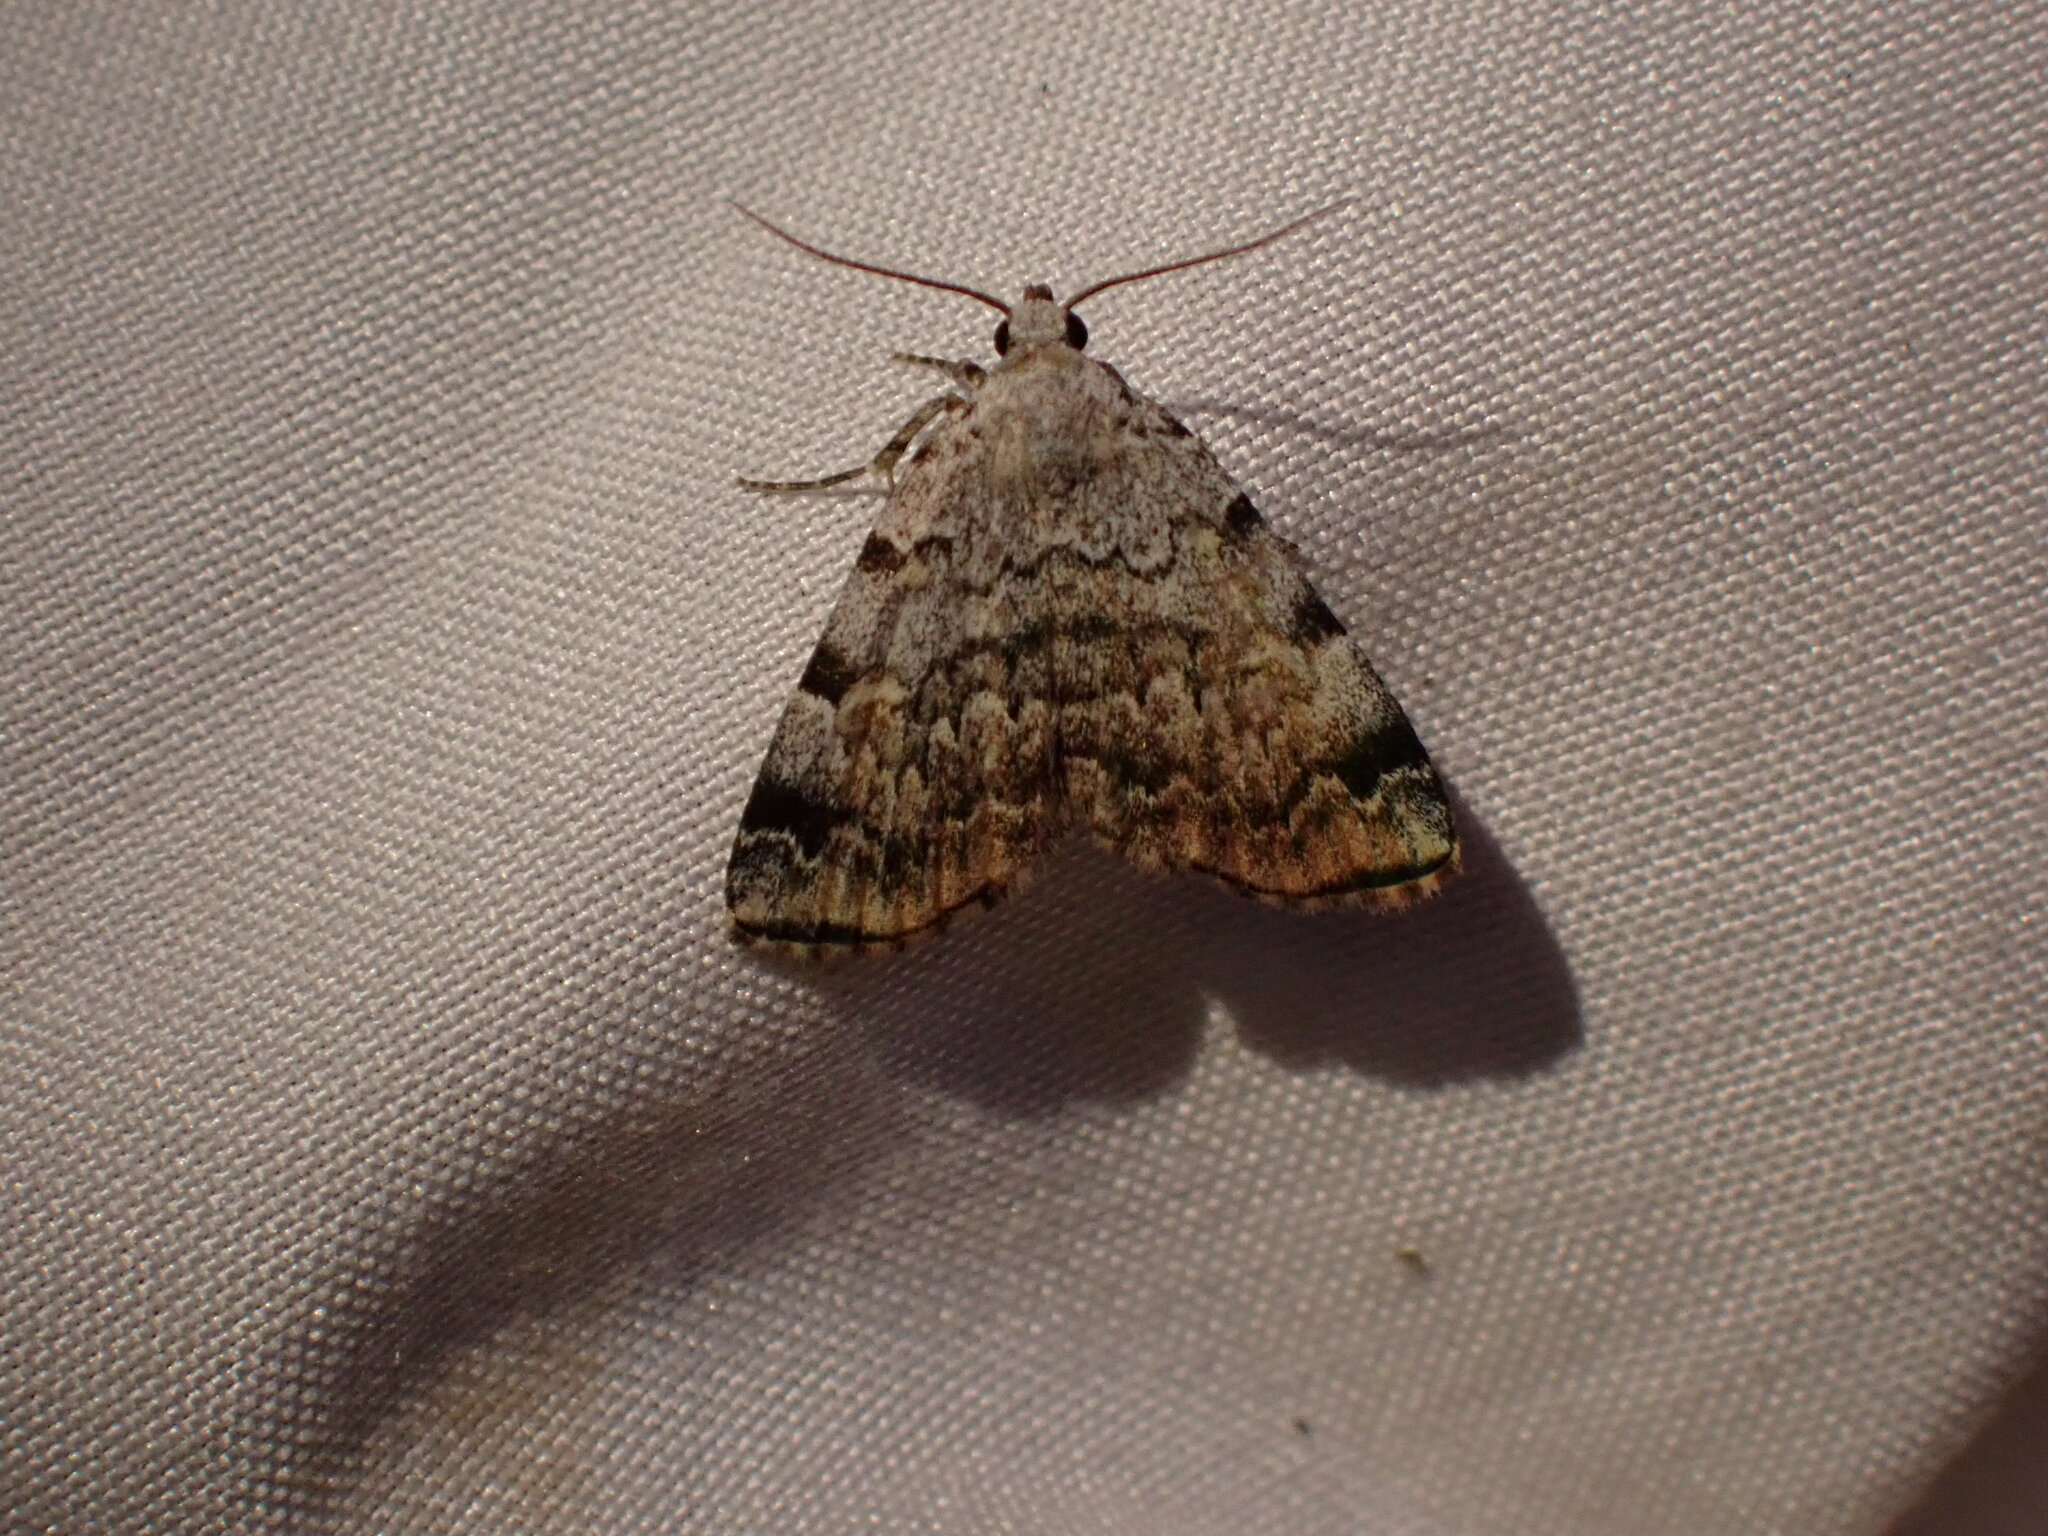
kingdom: Animalia
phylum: Arthropoda
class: Insecta
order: Lepidoptera
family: Erebidae
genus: Idia
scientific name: Idia americalis
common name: American idia moth
